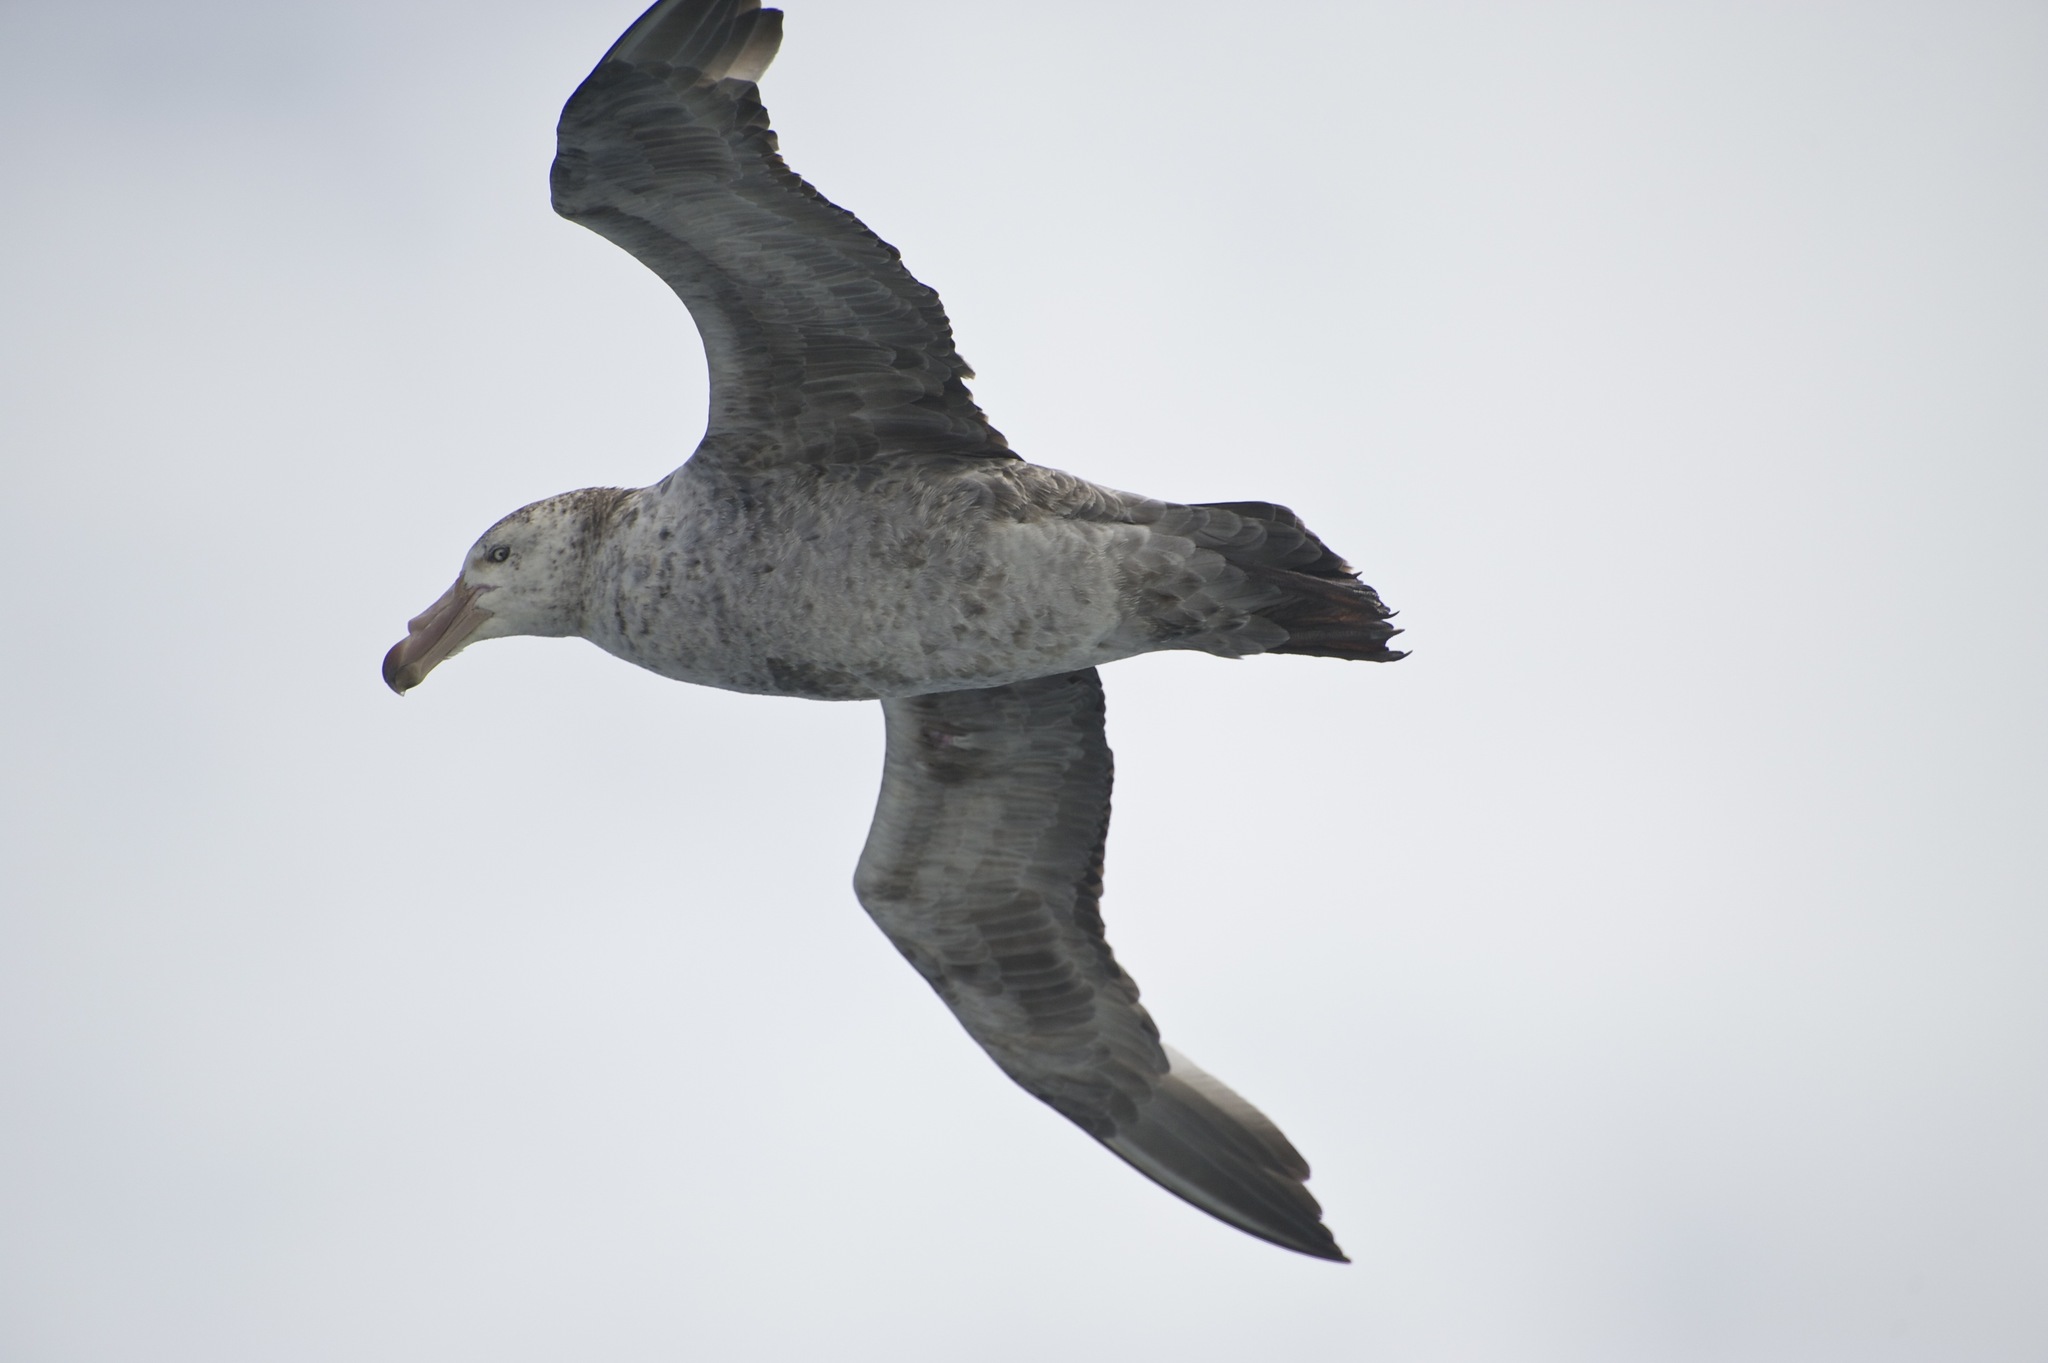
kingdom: Animalia
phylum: Chordata
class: Aves
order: Procellariiformes
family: Procellariidae
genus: Macronectes
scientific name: Macronectes halli
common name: Northern giant petrel
